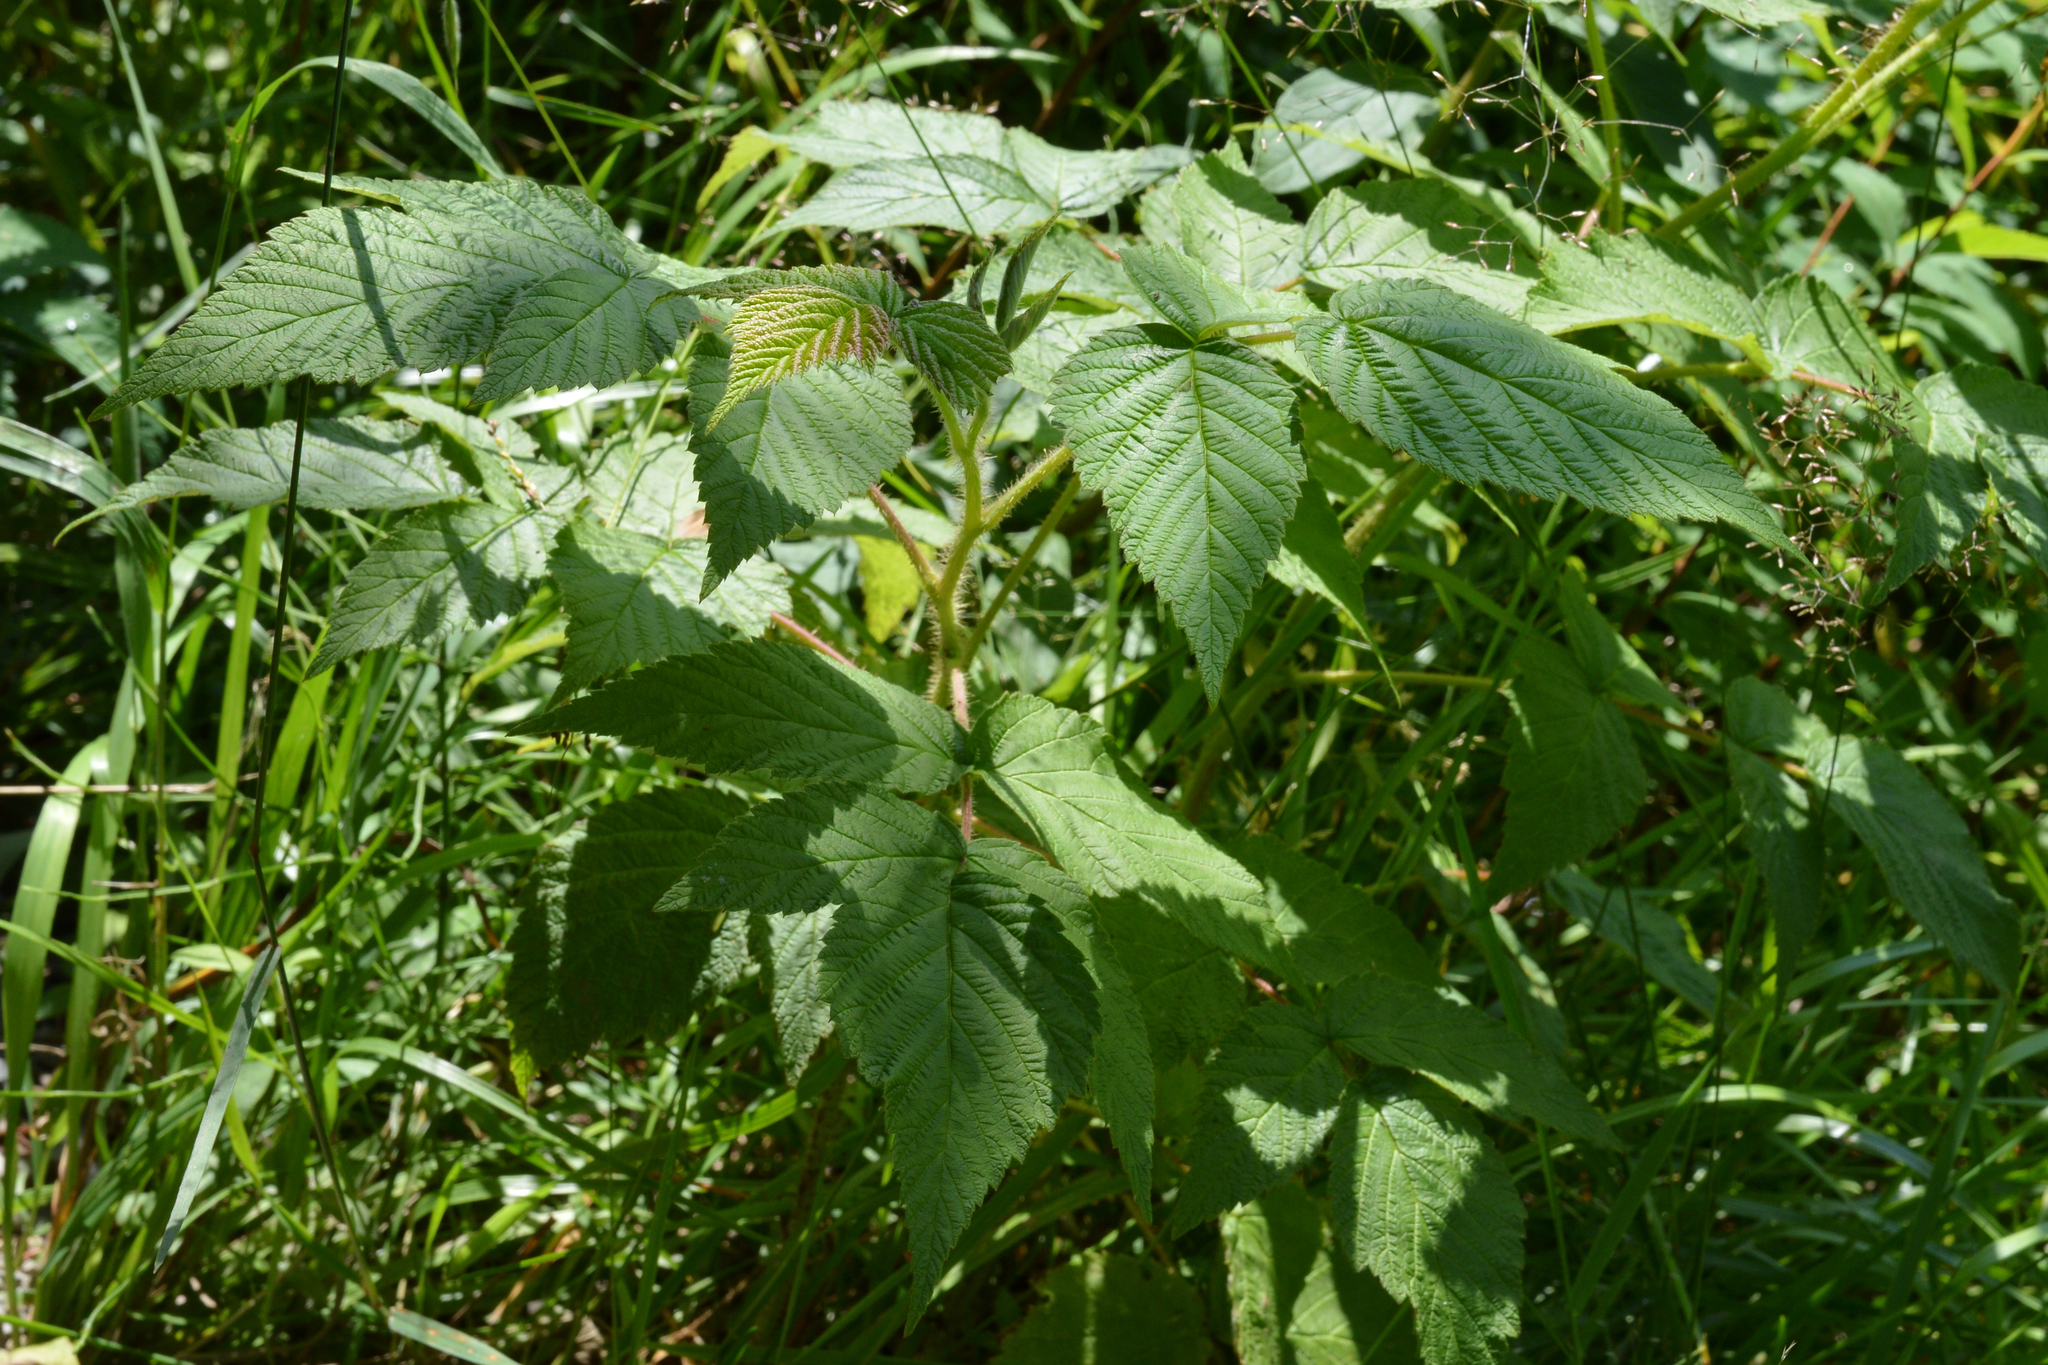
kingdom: Plantae
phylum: Tracheophyta
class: Magnoliopsida
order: Rosales
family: Rosaceae
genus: Rubus
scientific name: Rubus idaeus
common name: Raspberry
